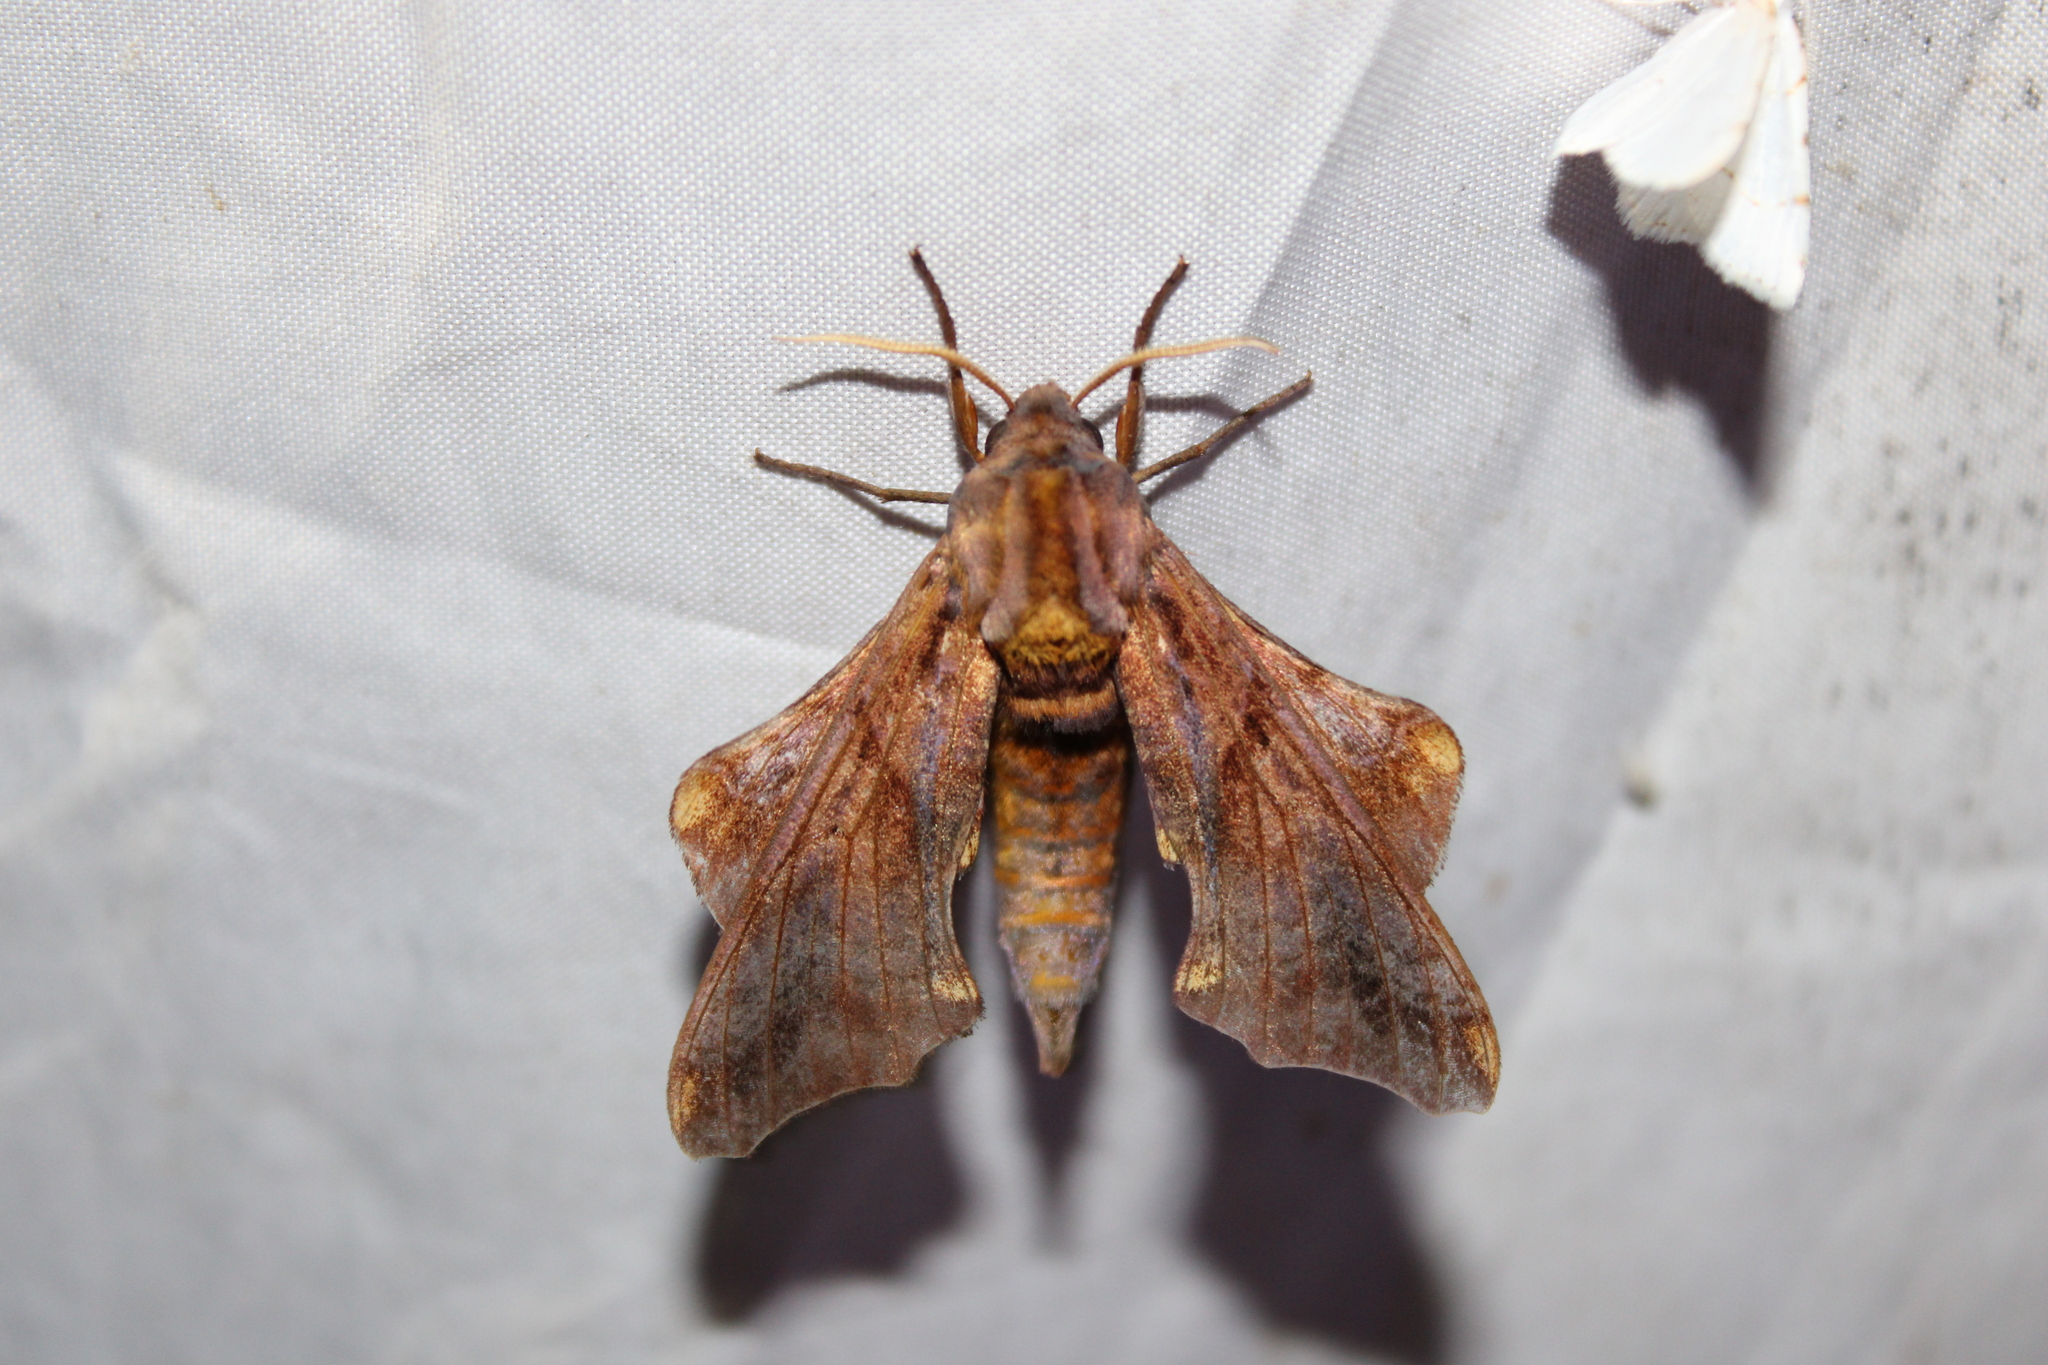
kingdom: Animalia
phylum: Arthropoda
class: Insecta
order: Lepidoptera
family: Sphingidae
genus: Paonias
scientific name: Paonias myops
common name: Small-eyed sphinx
